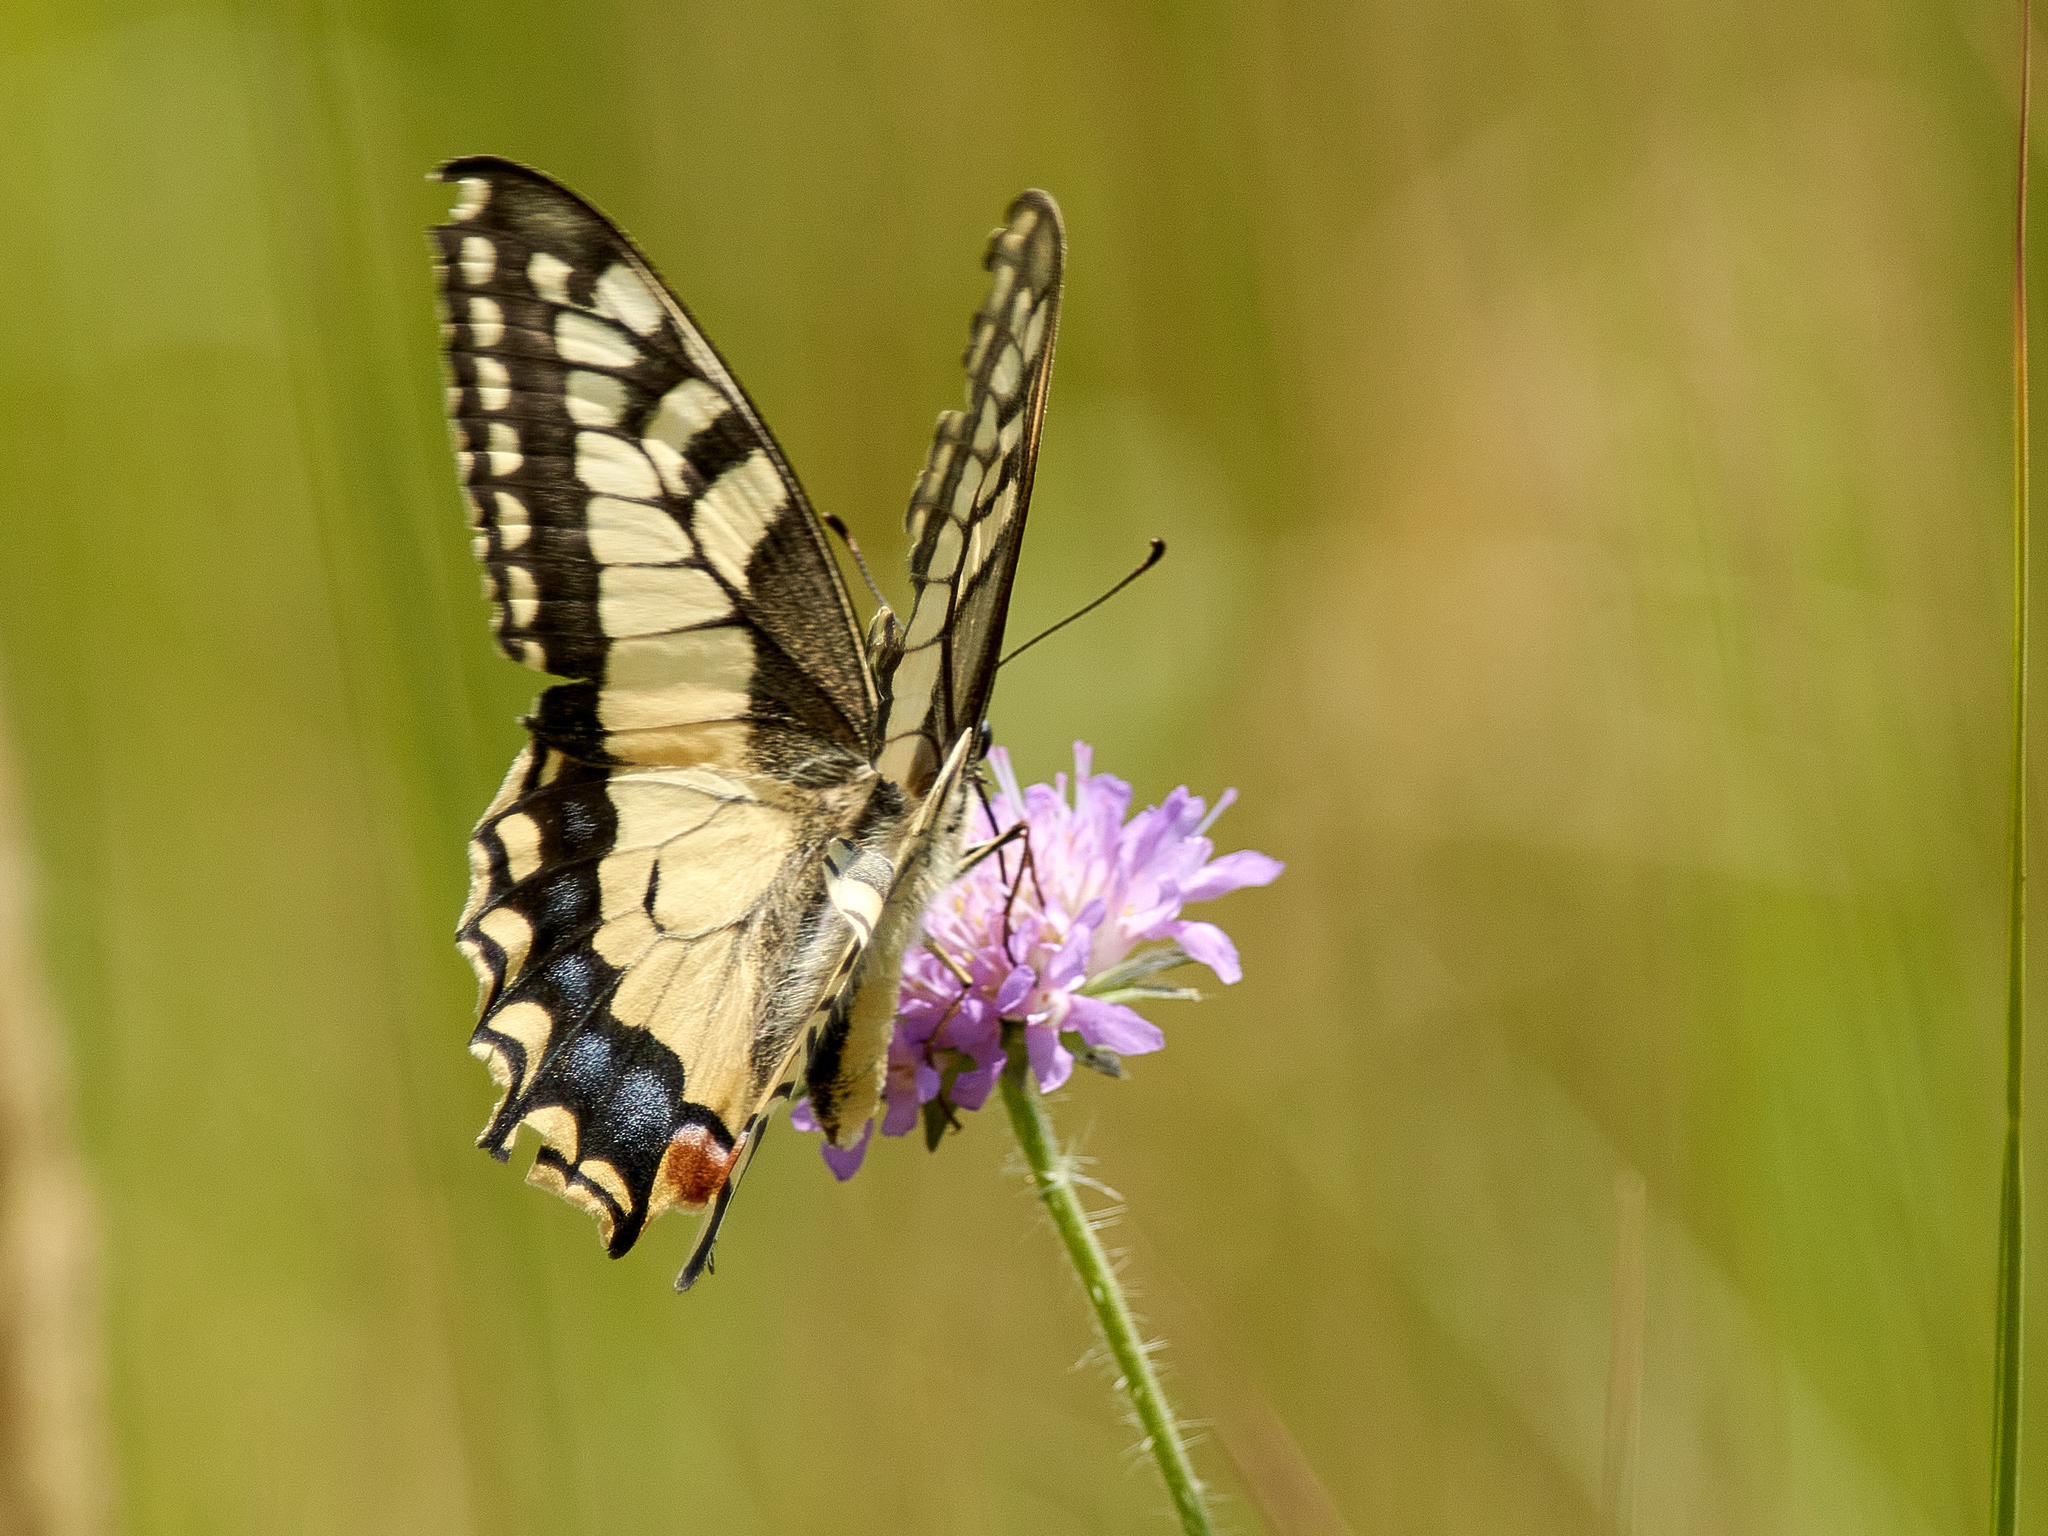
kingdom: Animalia
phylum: Arthropoda
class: Insecta
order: Lepidoptera
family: Papilionidae
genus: Papilio
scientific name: Papilio machaon
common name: Swallowtail
